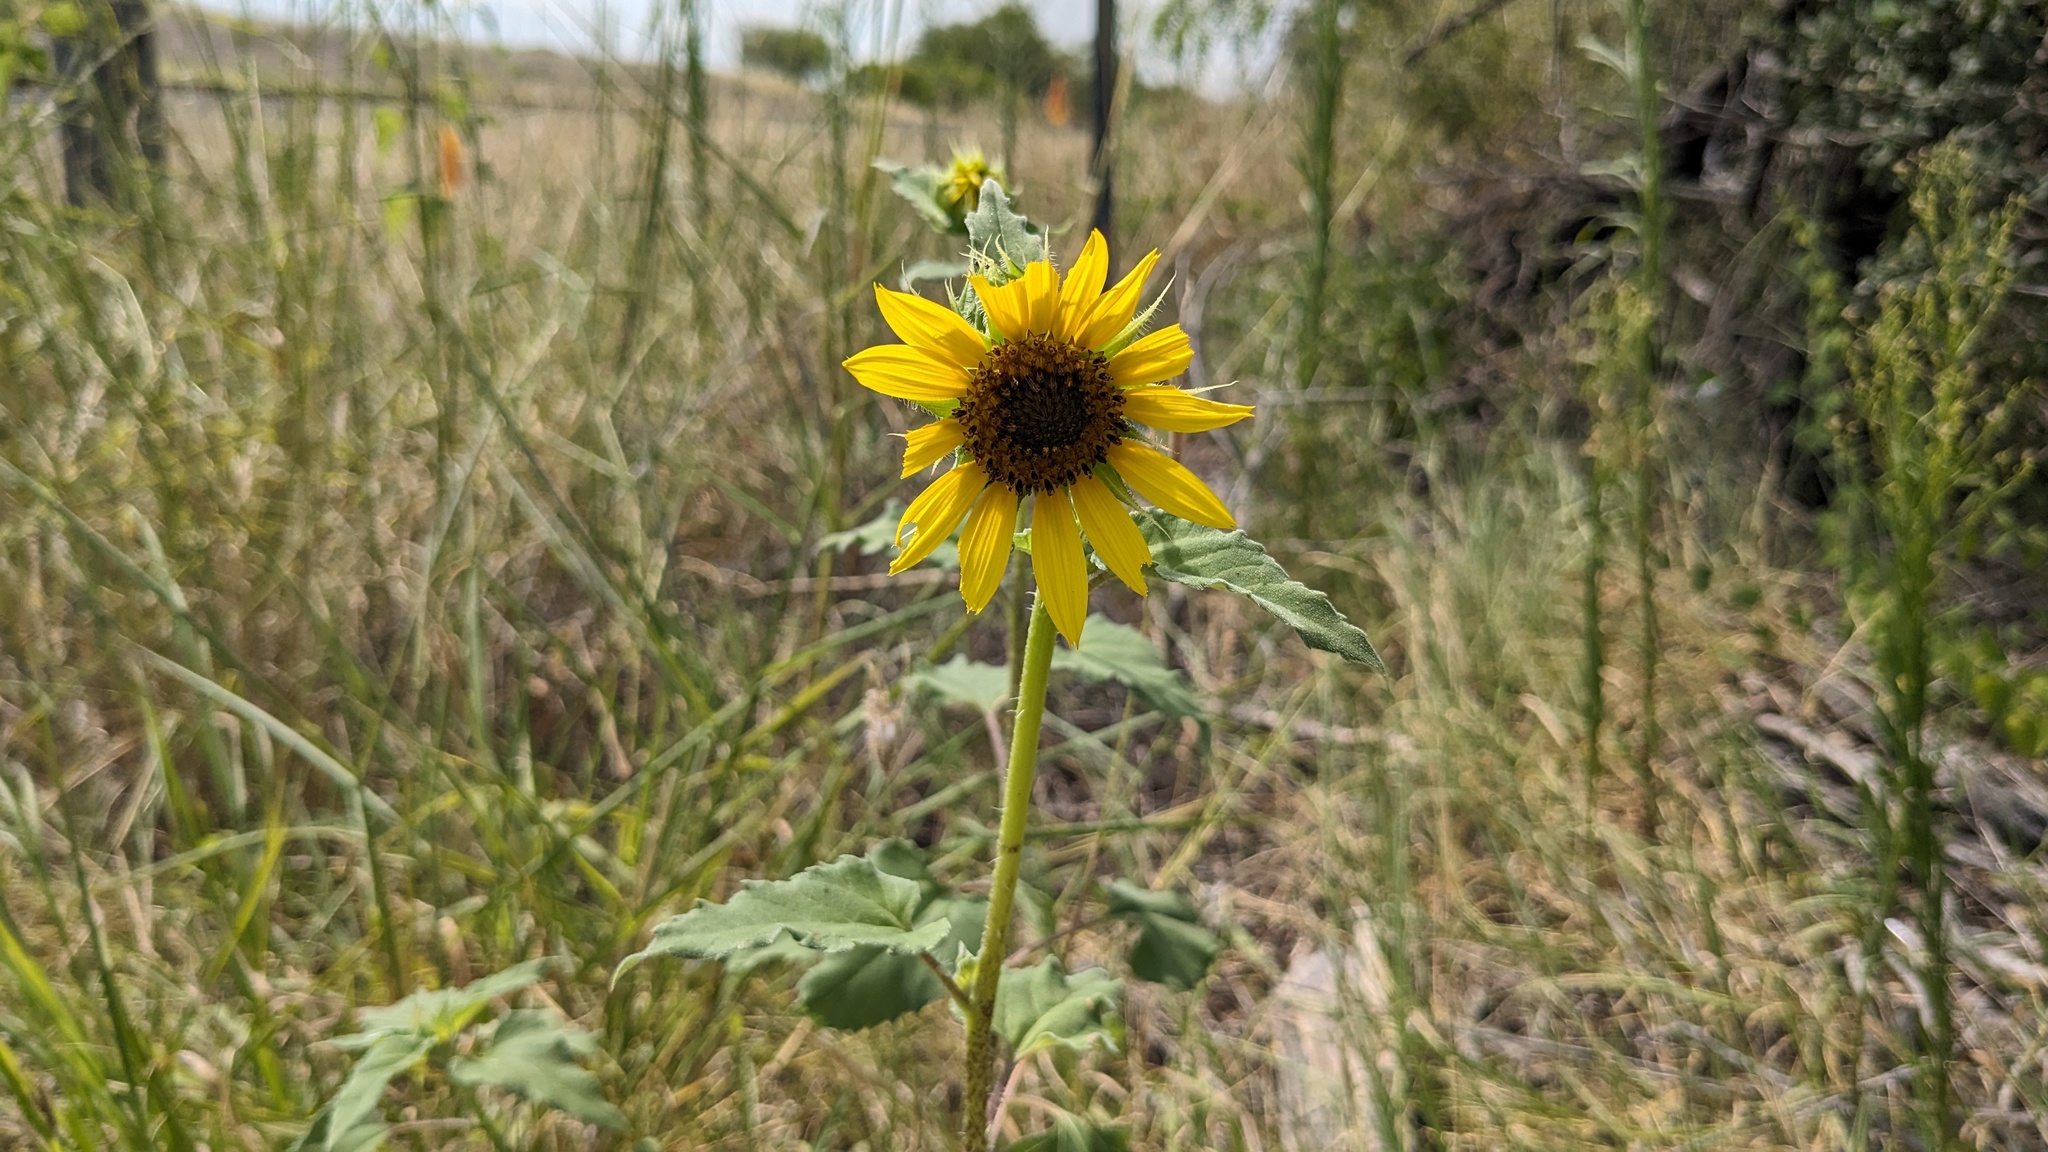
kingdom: Plantae
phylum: Tracheophyta
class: Magnoliopsida
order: Asterales
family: Asteraceae
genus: Helianthus
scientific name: Helianthus annuus
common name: Sunflower
